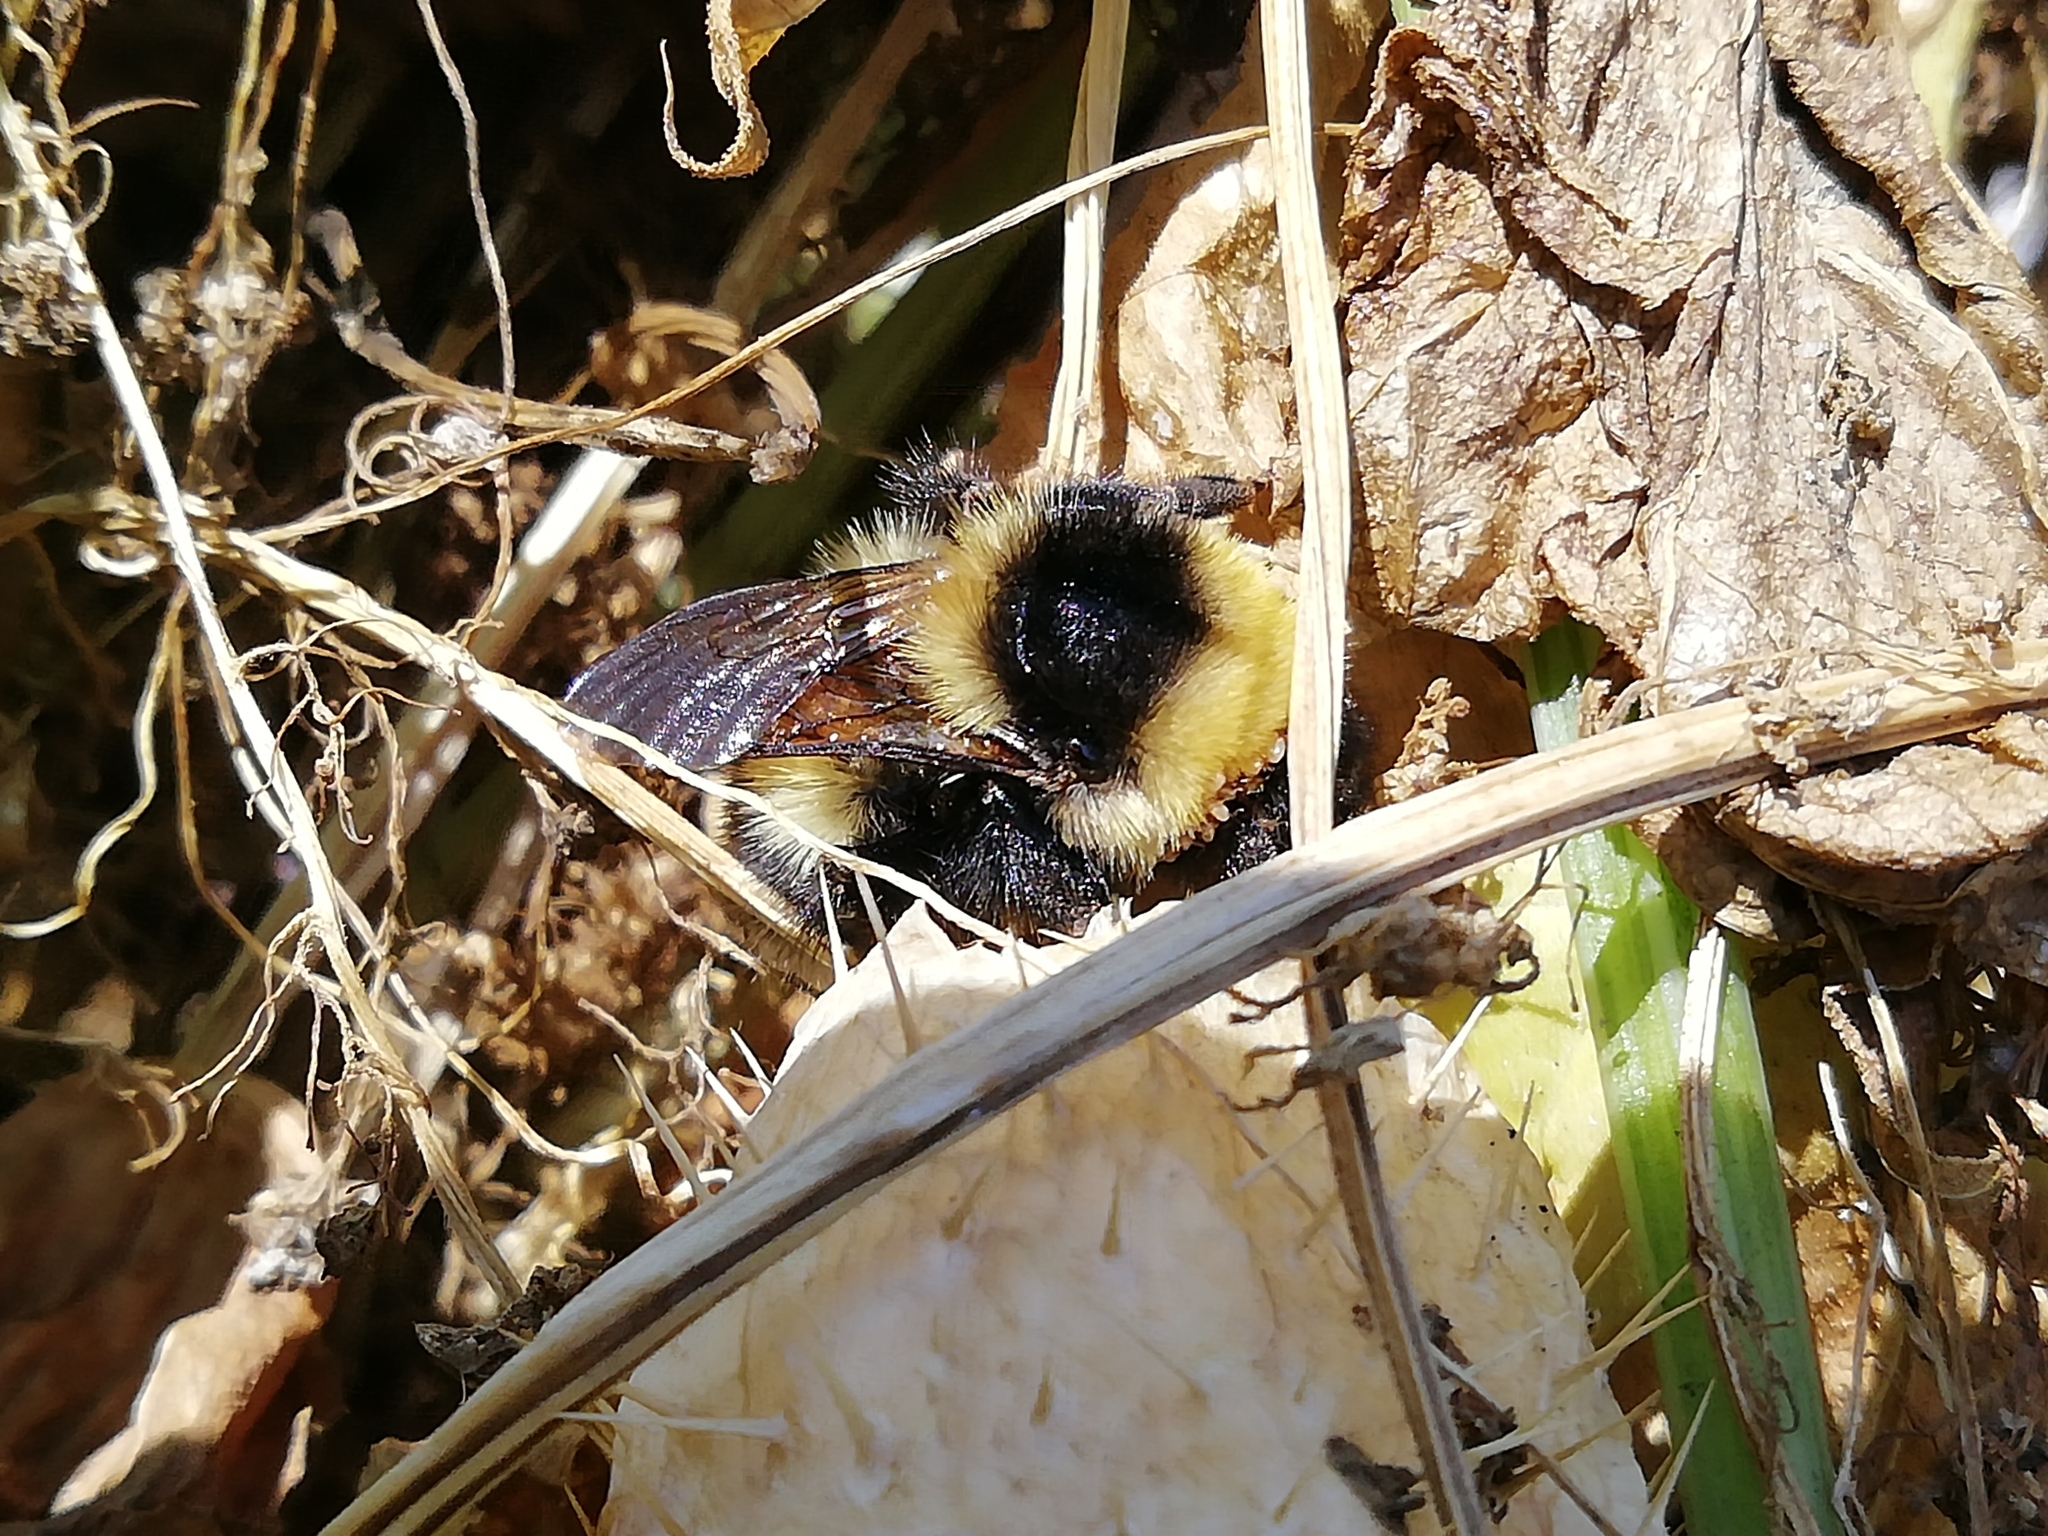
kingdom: Animalia
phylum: Arthropoda
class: Insecta
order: Hymenoptera
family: Apidae
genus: Bombus
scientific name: Bombus
